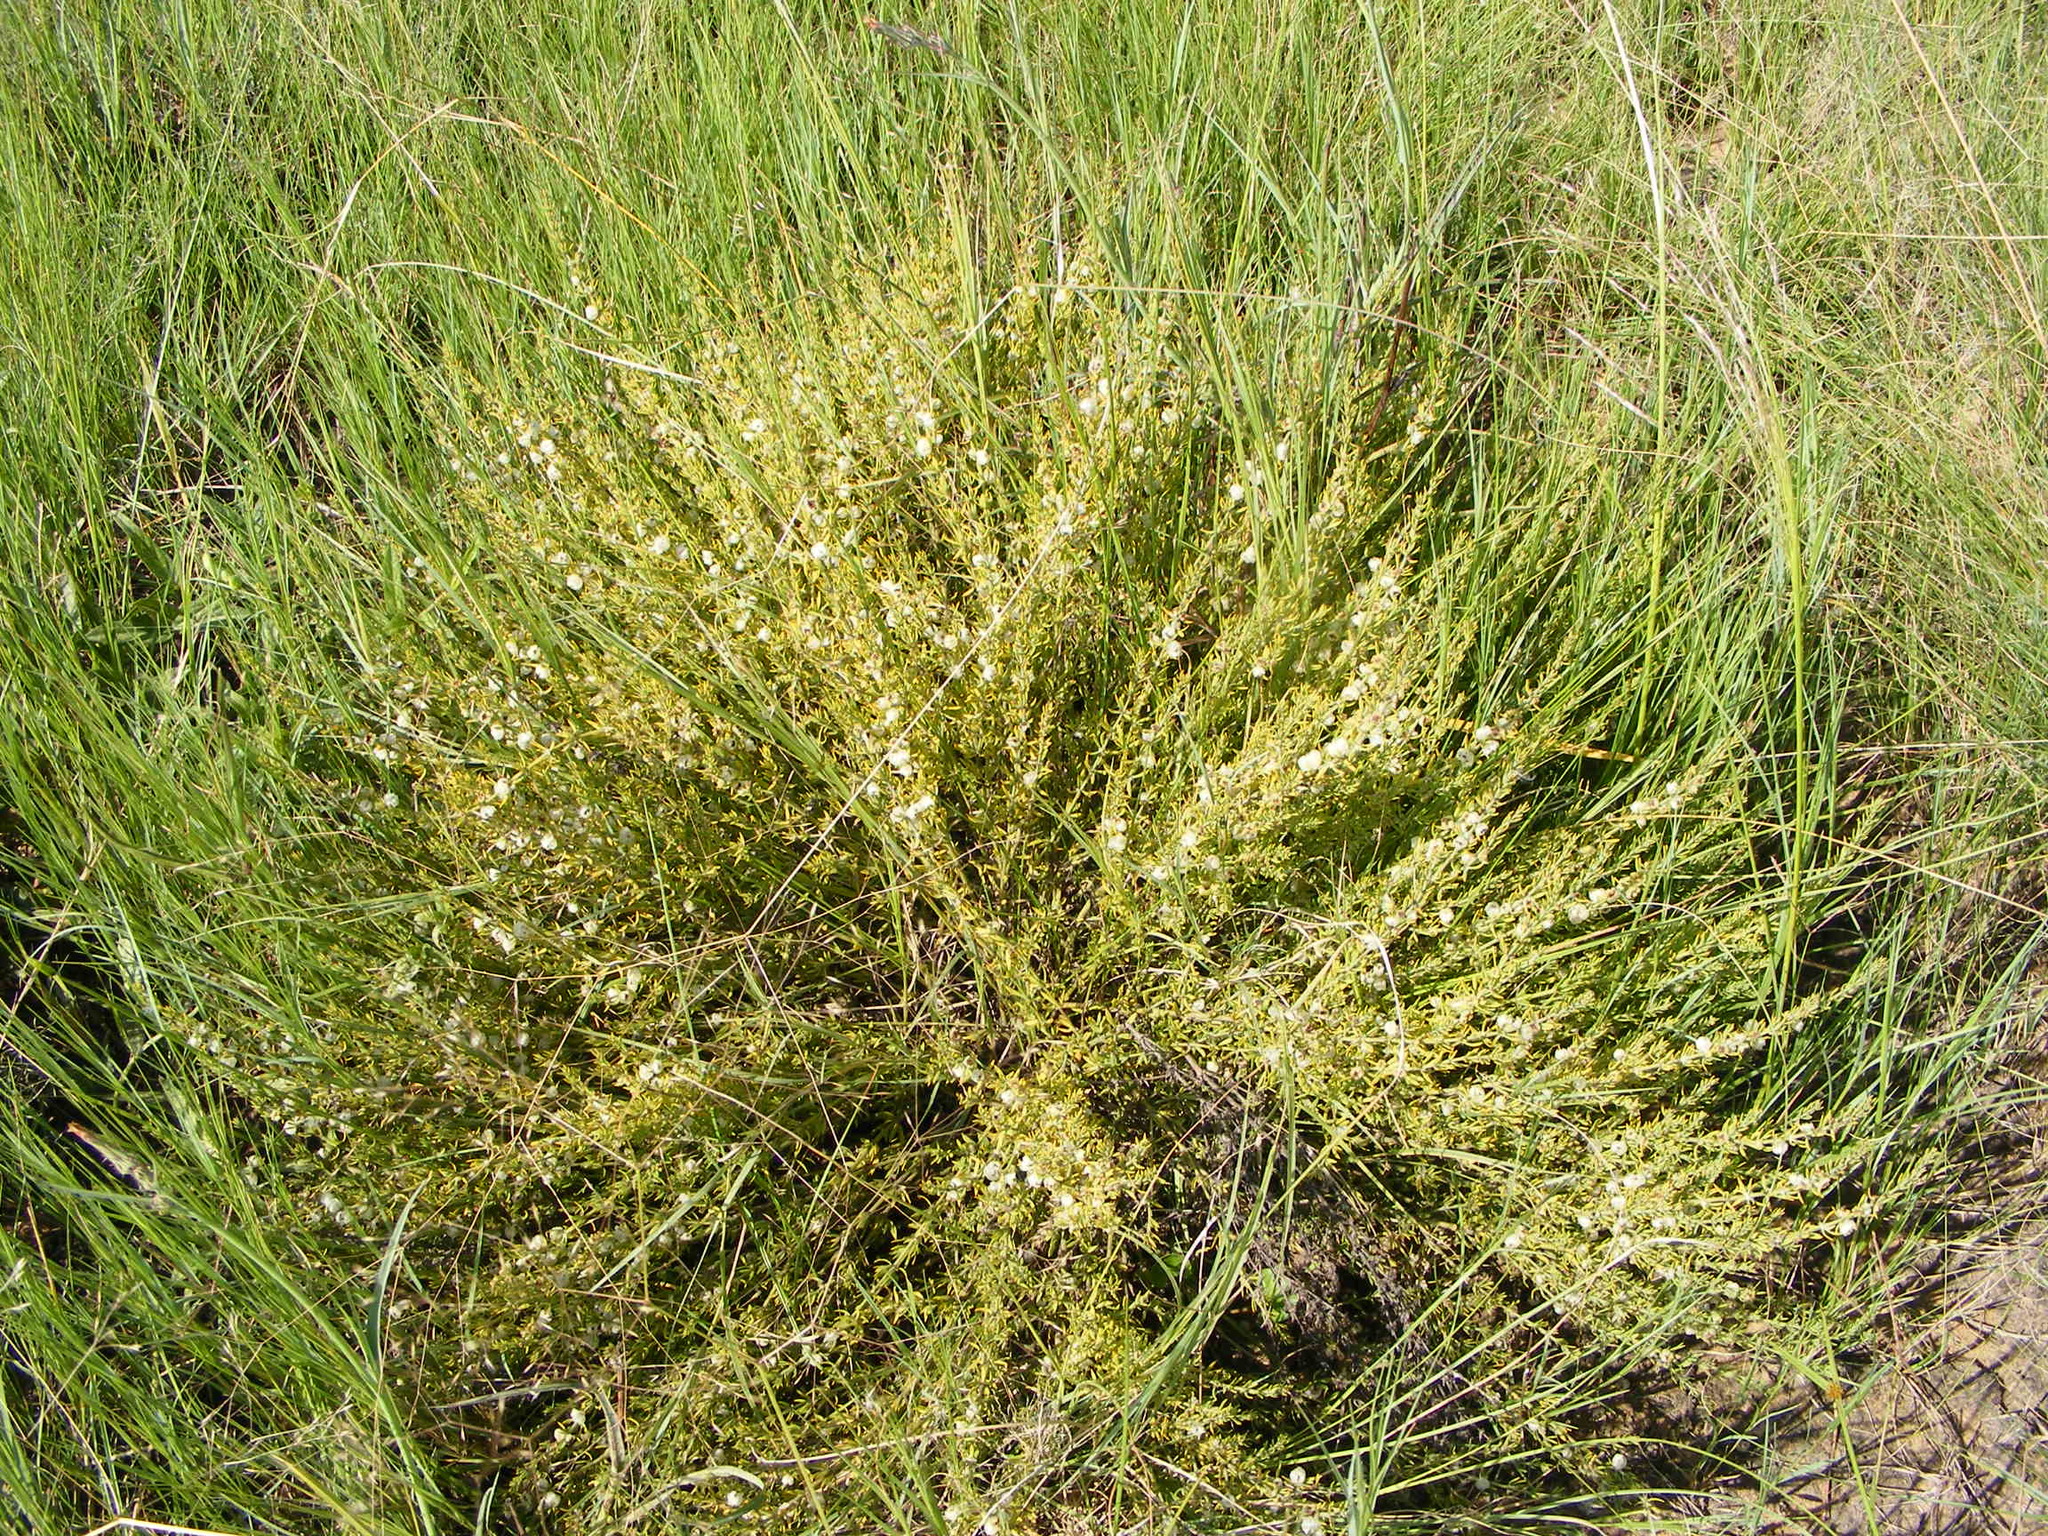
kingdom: Plantae
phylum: Tracheophyta
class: Magnoliopsida
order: Caryophyllales
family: Caryophyllaceae
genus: Pollichia
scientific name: Pollichia campestris
